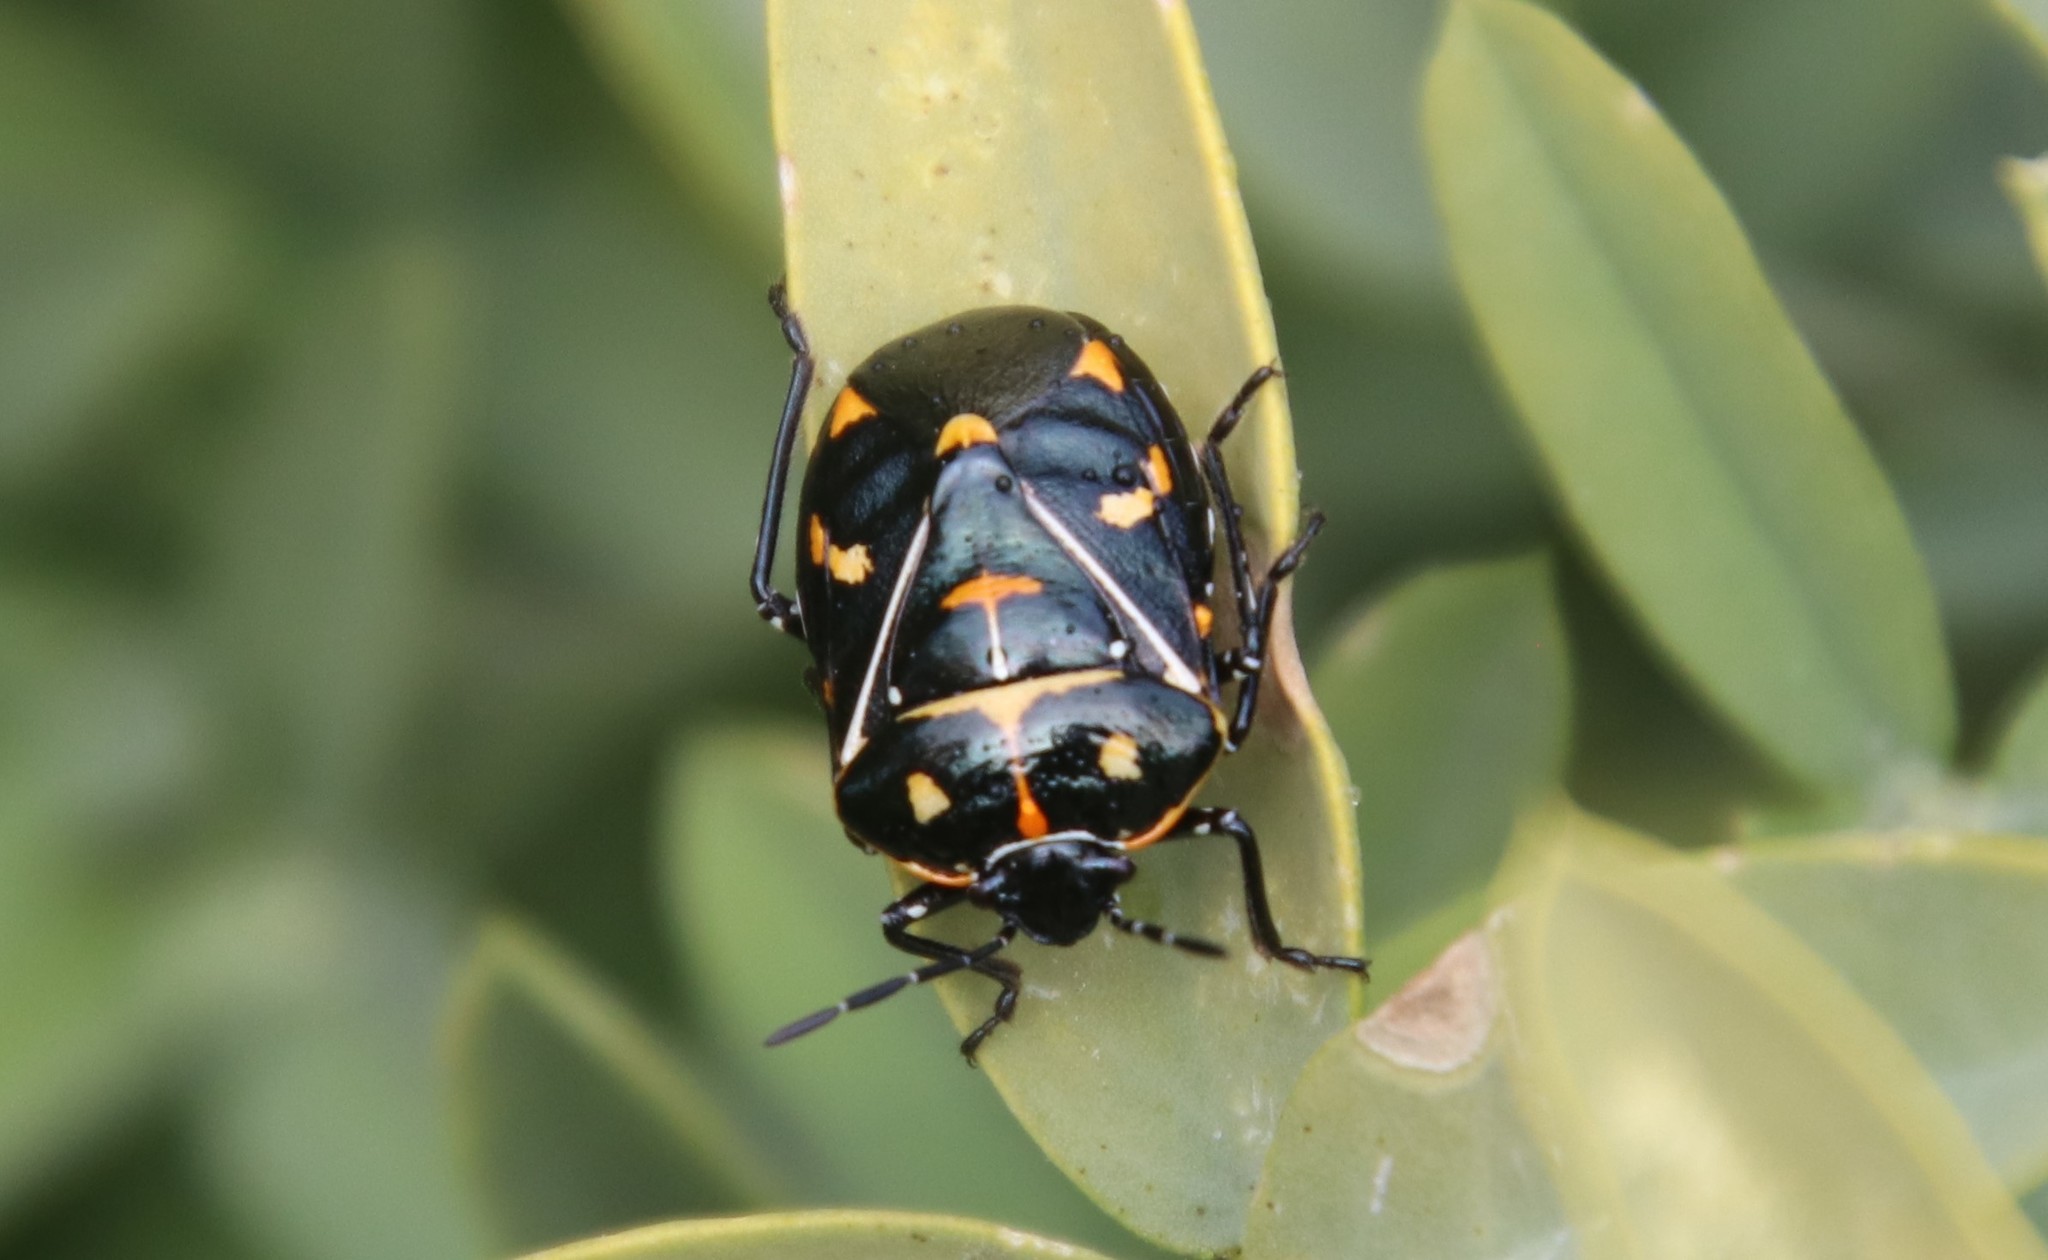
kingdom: Animalia
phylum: Arthropoda
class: Insecta
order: Hemiptera
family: Pentatomidae
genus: Murgantia
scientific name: Murgantia histrionica
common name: Harlequin bug
